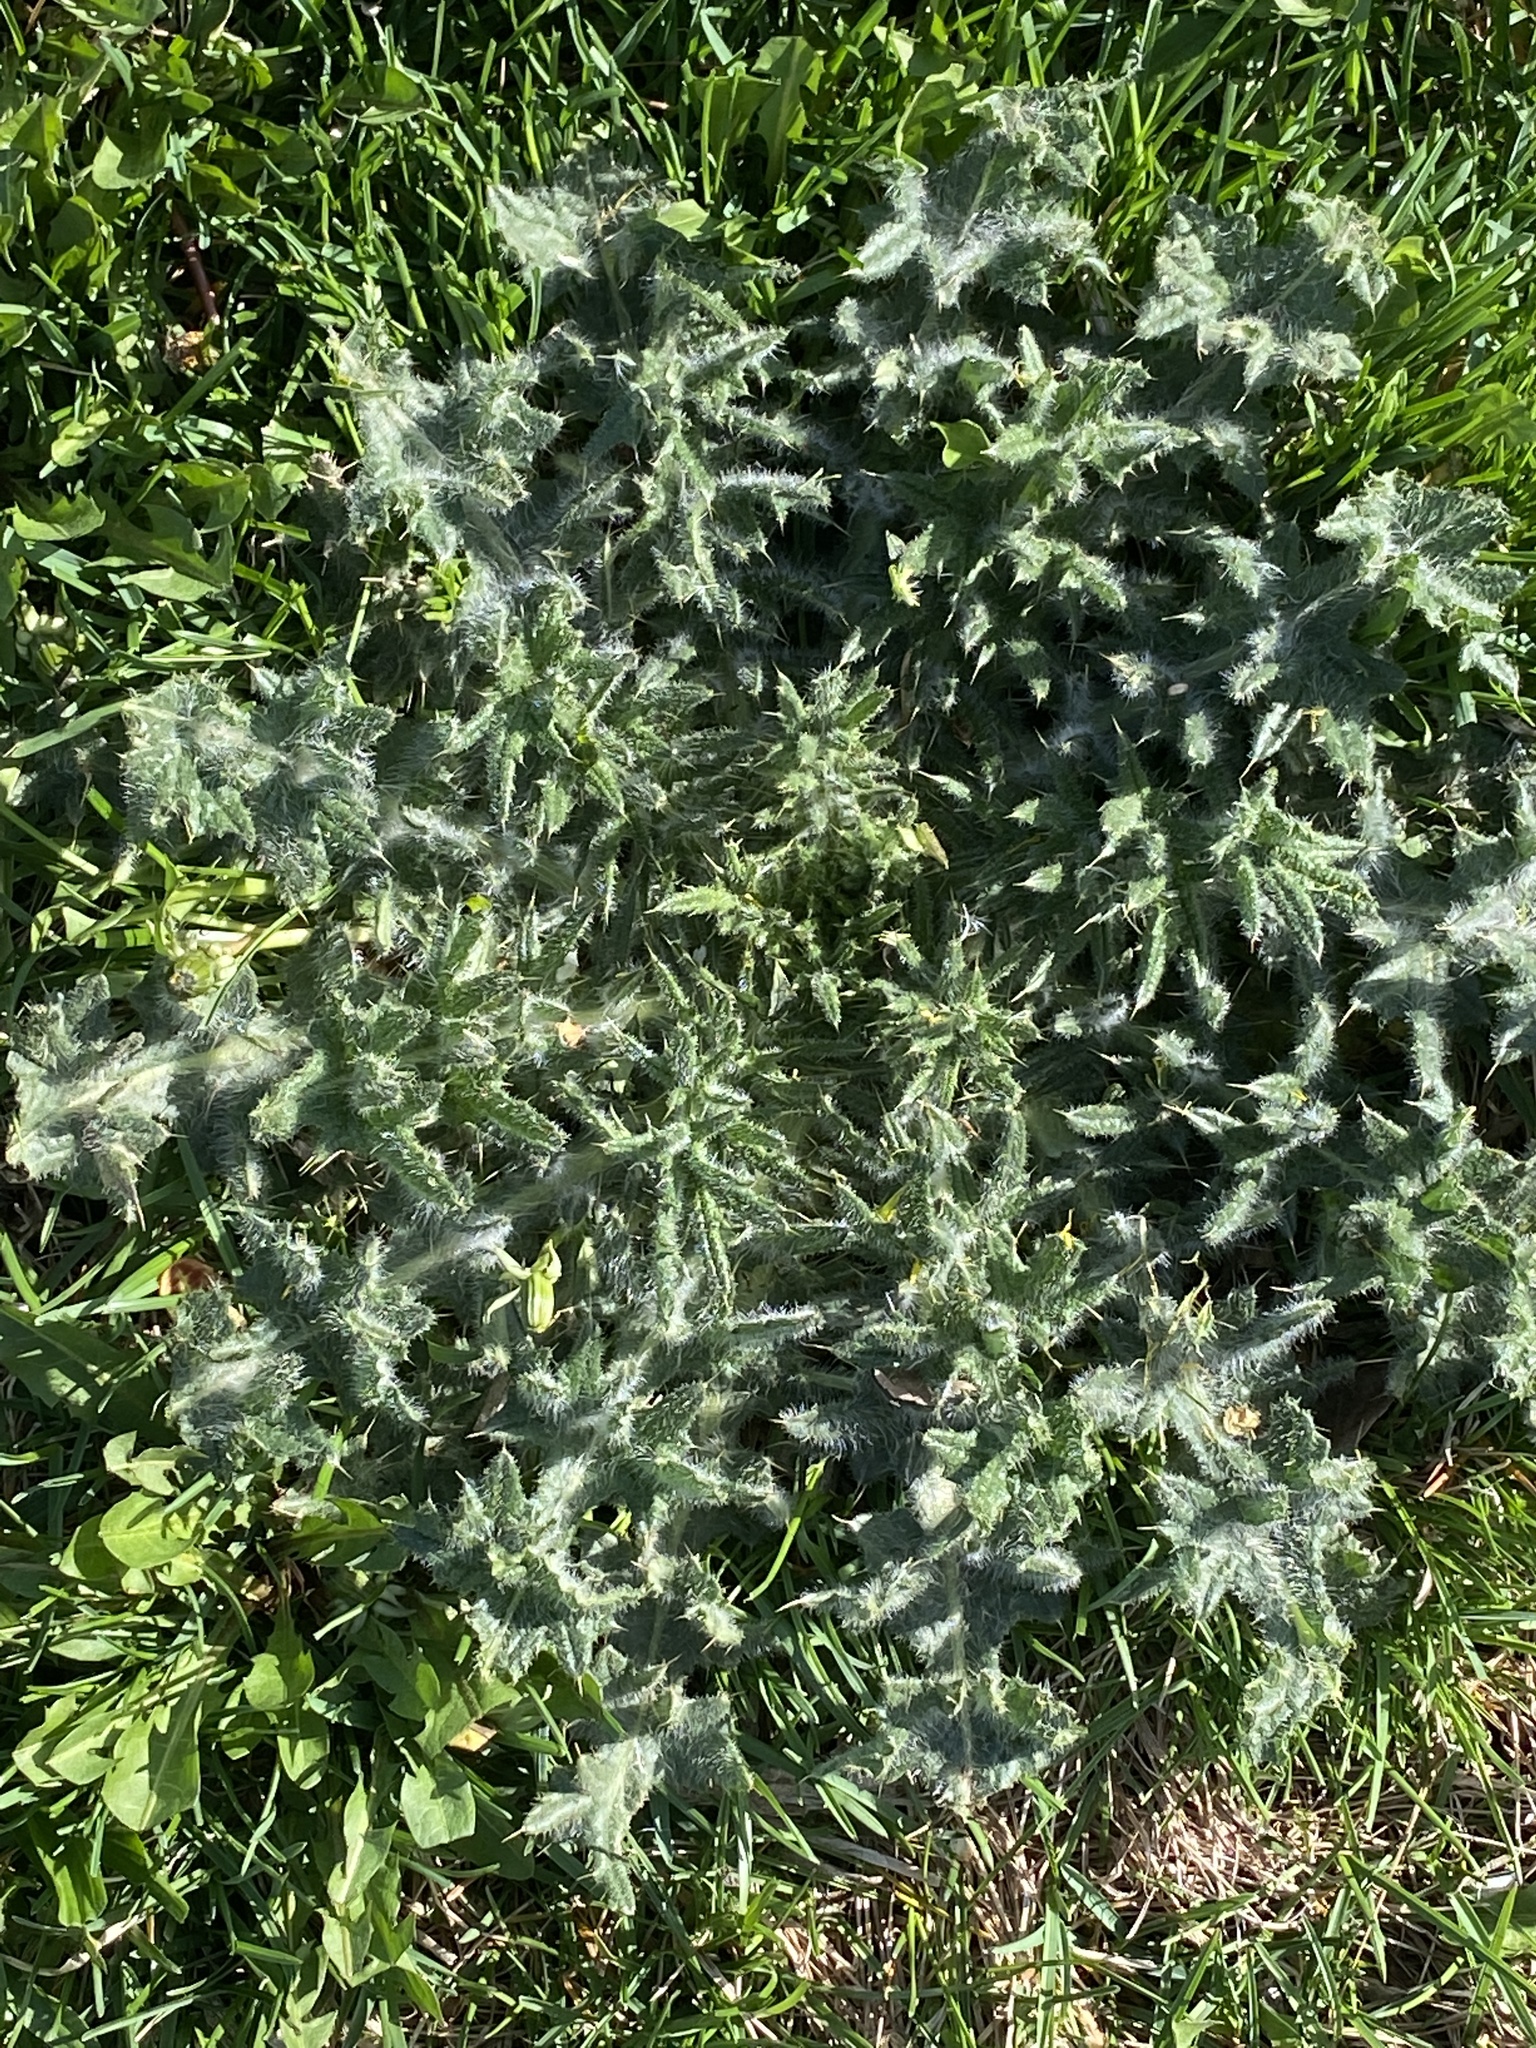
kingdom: Plantae
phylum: Tracheophyta
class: Magnoliopsida
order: Asterales
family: Asteraceae
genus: Cirsium
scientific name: Cirsium vulgare
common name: Bull thistle
